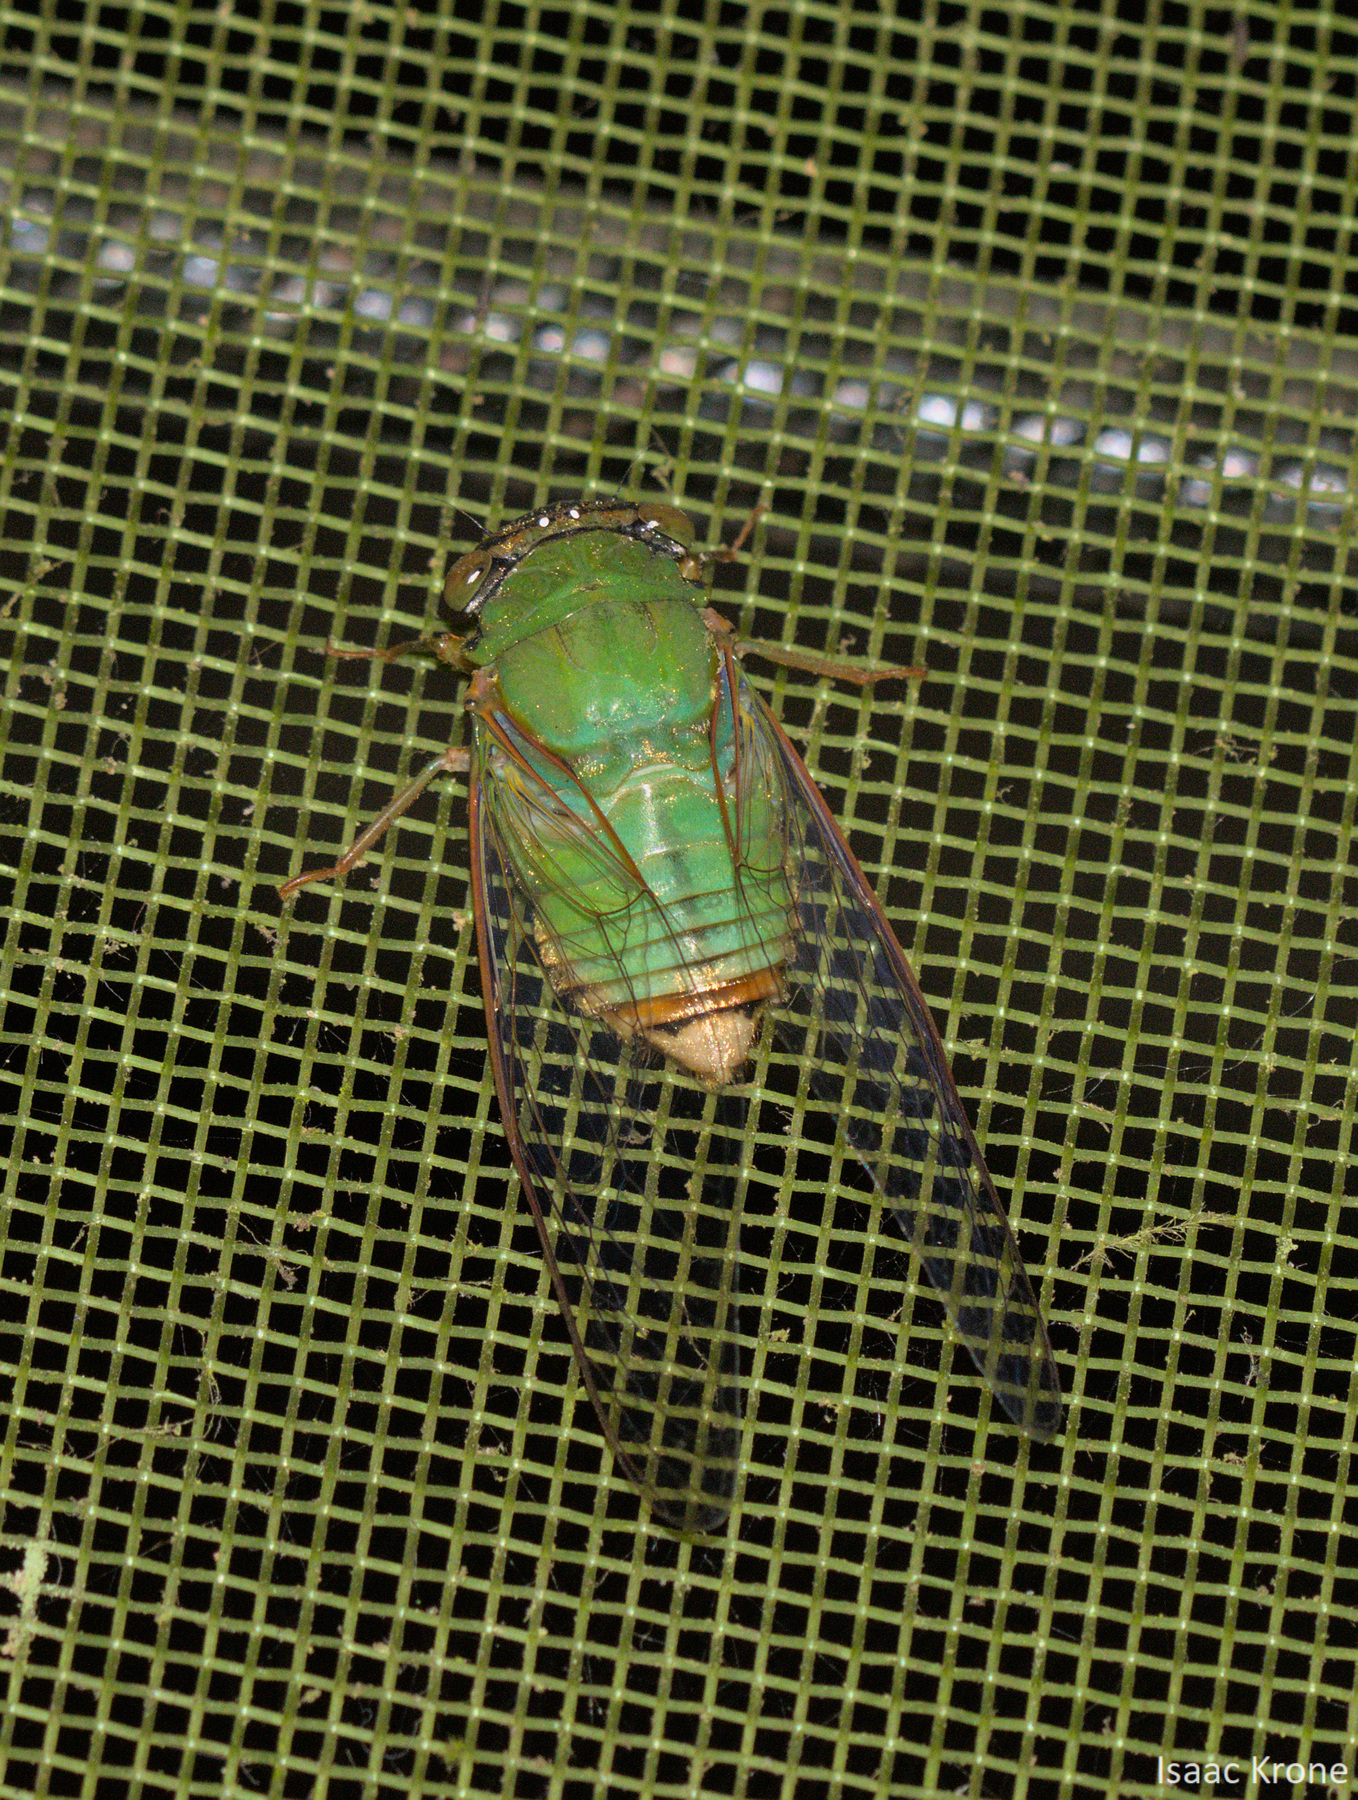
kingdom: Animalia
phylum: Arthropoda
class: Insecta
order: Hemiptera
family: Cicadidae
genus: Guyalna
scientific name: Guyalna glaucus
